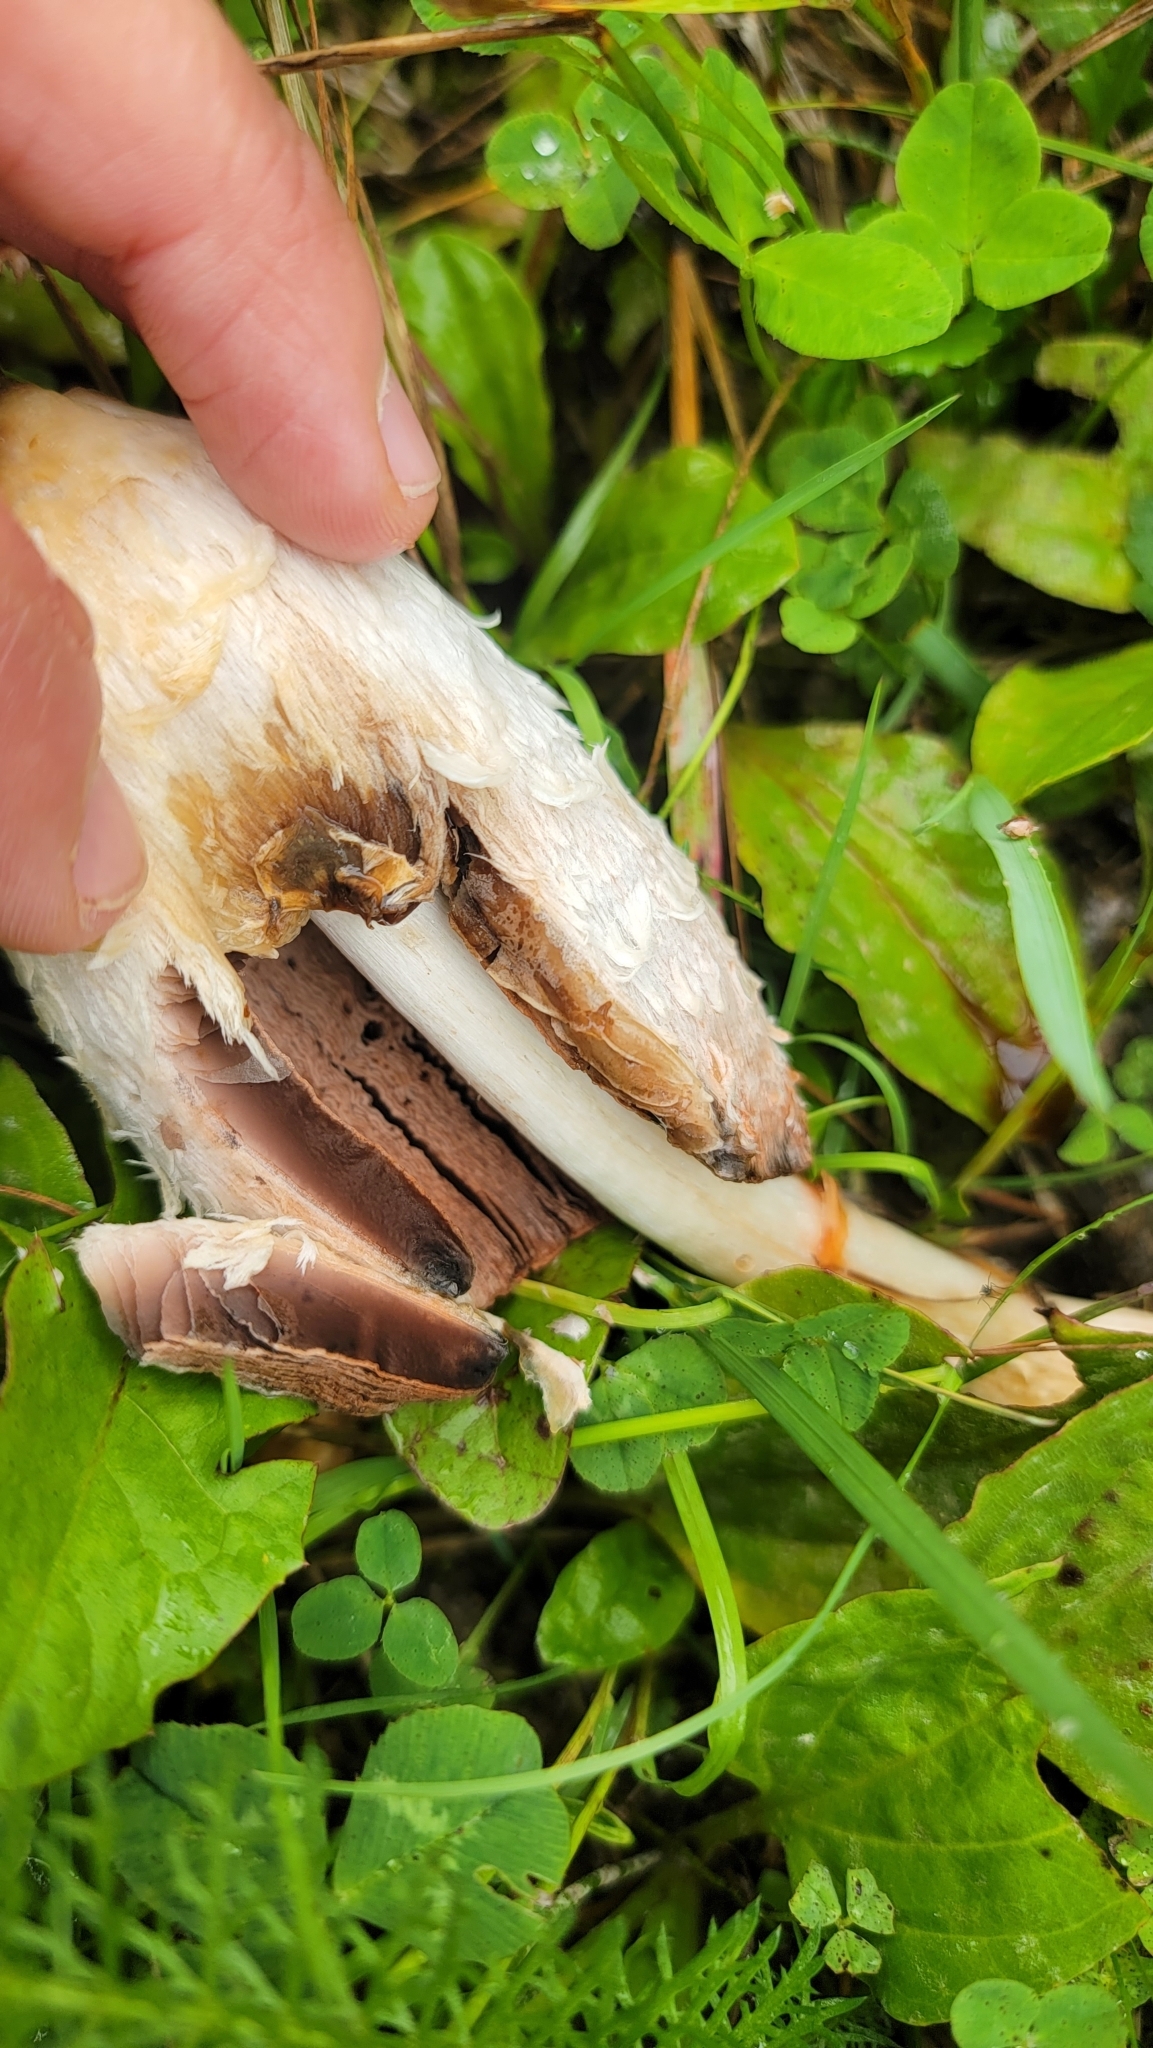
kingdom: Fungi
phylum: Basidiomycota
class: Agaricomycetes
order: Agaricales
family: Agaricaceae
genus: Coprinus
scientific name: Coprinus comatus
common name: Lawyer's wig
